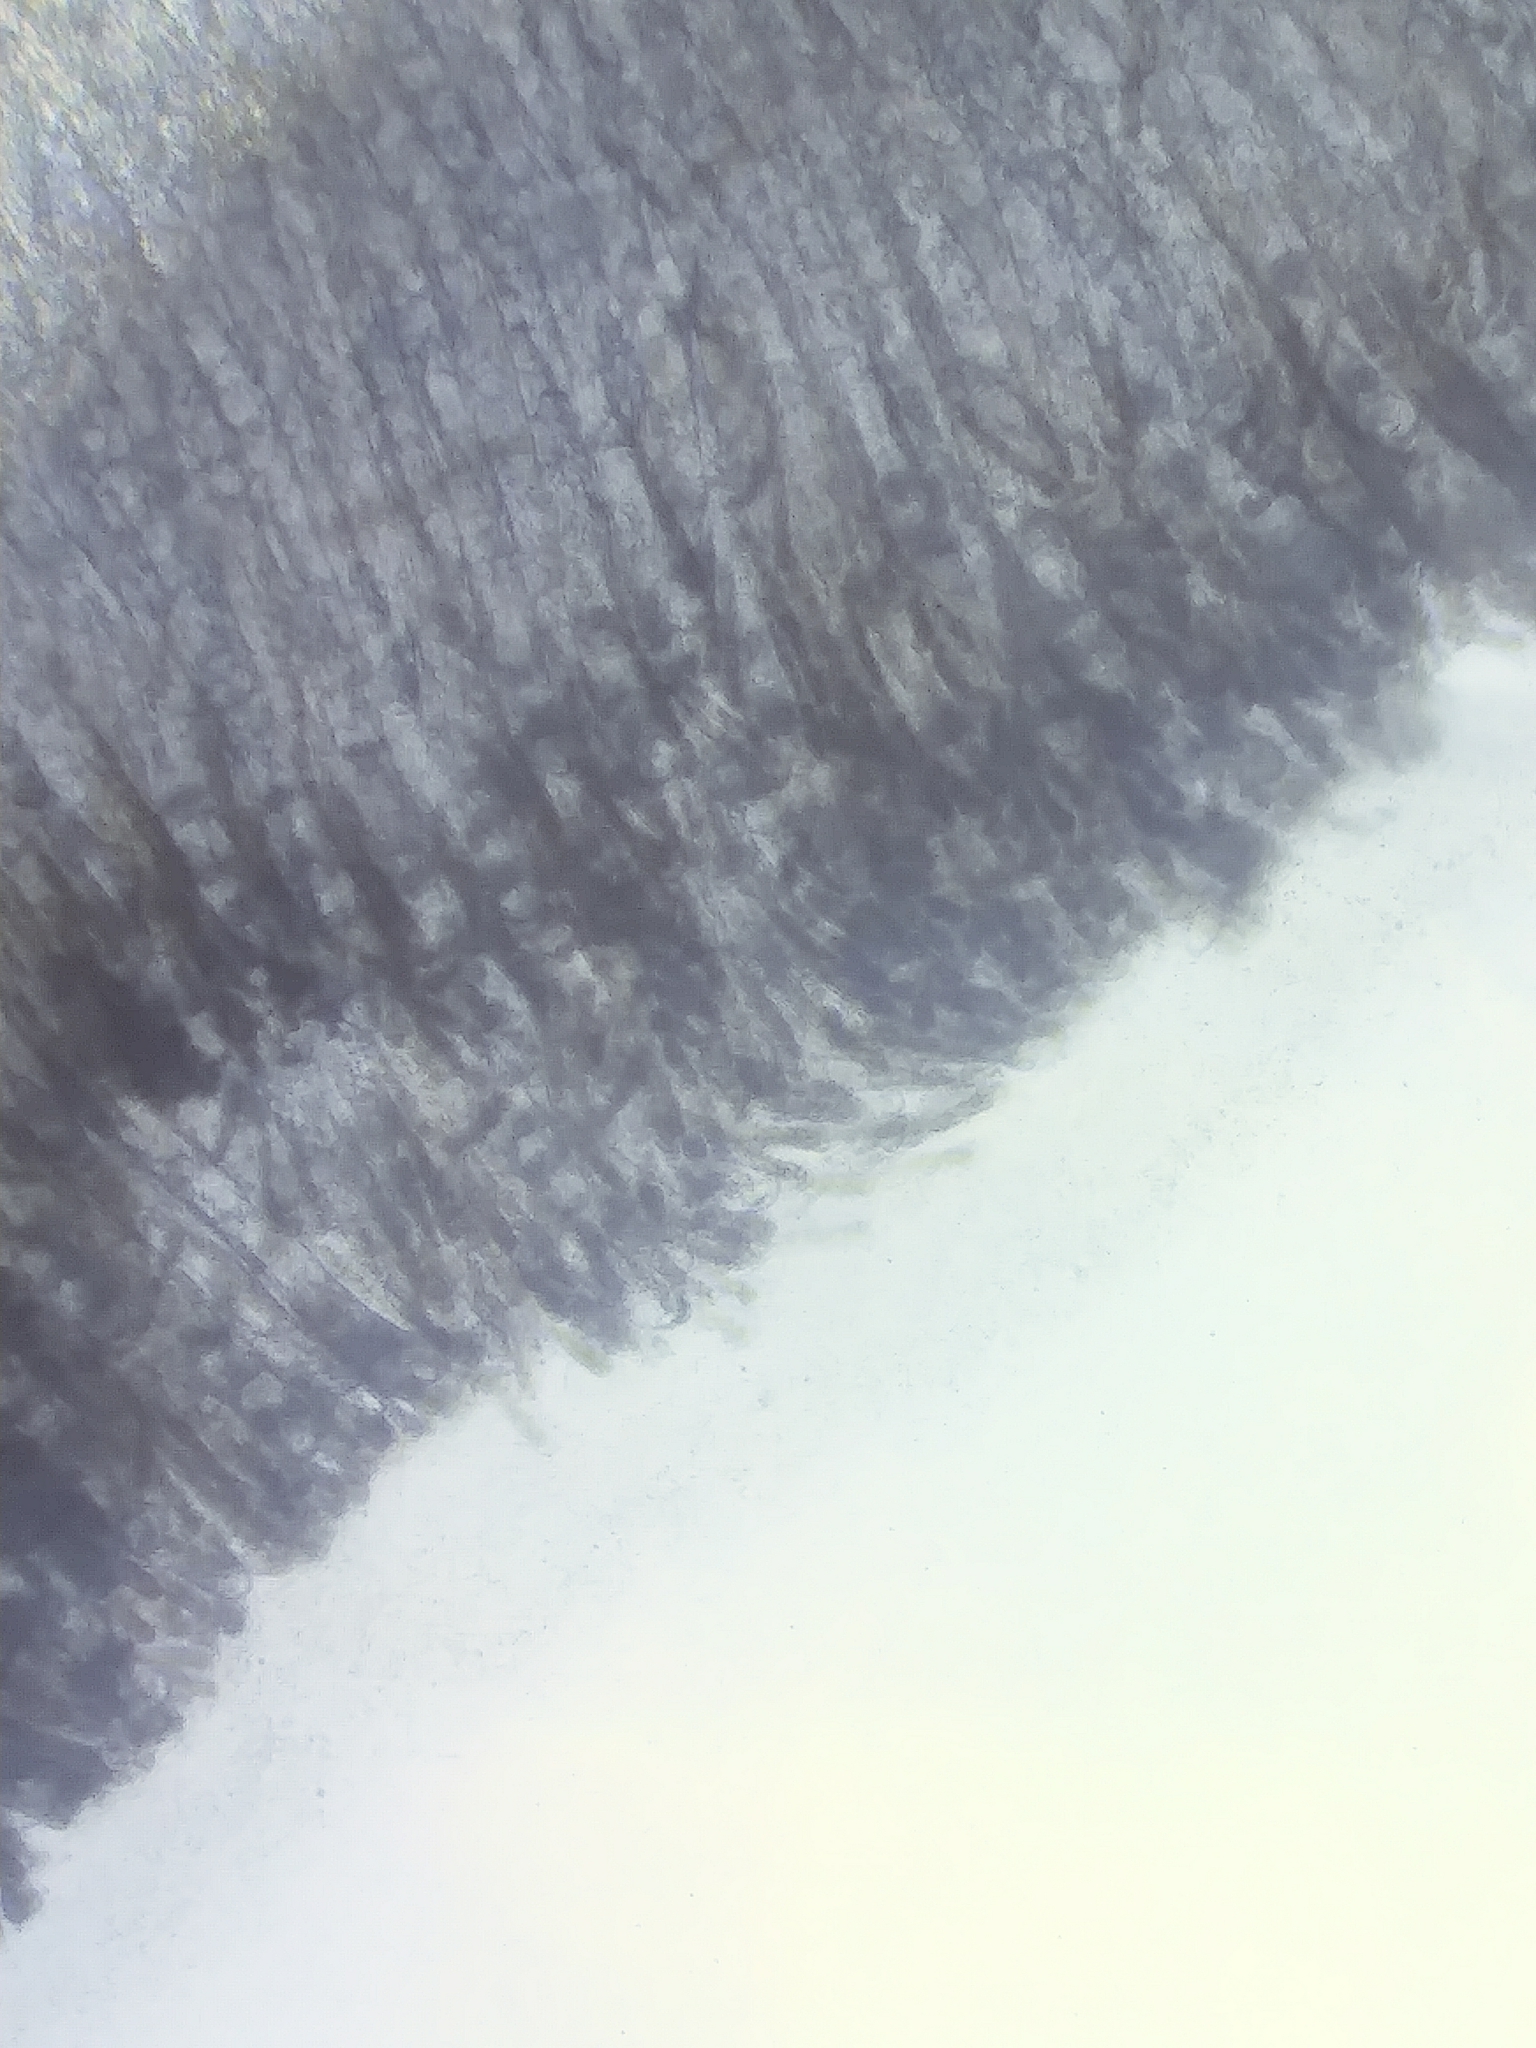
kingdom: Fungi
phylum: Ascomycota
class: Pezizomycetes
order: Pezizales
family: Discinaceae
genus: Discina
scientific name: Discina ancilis
